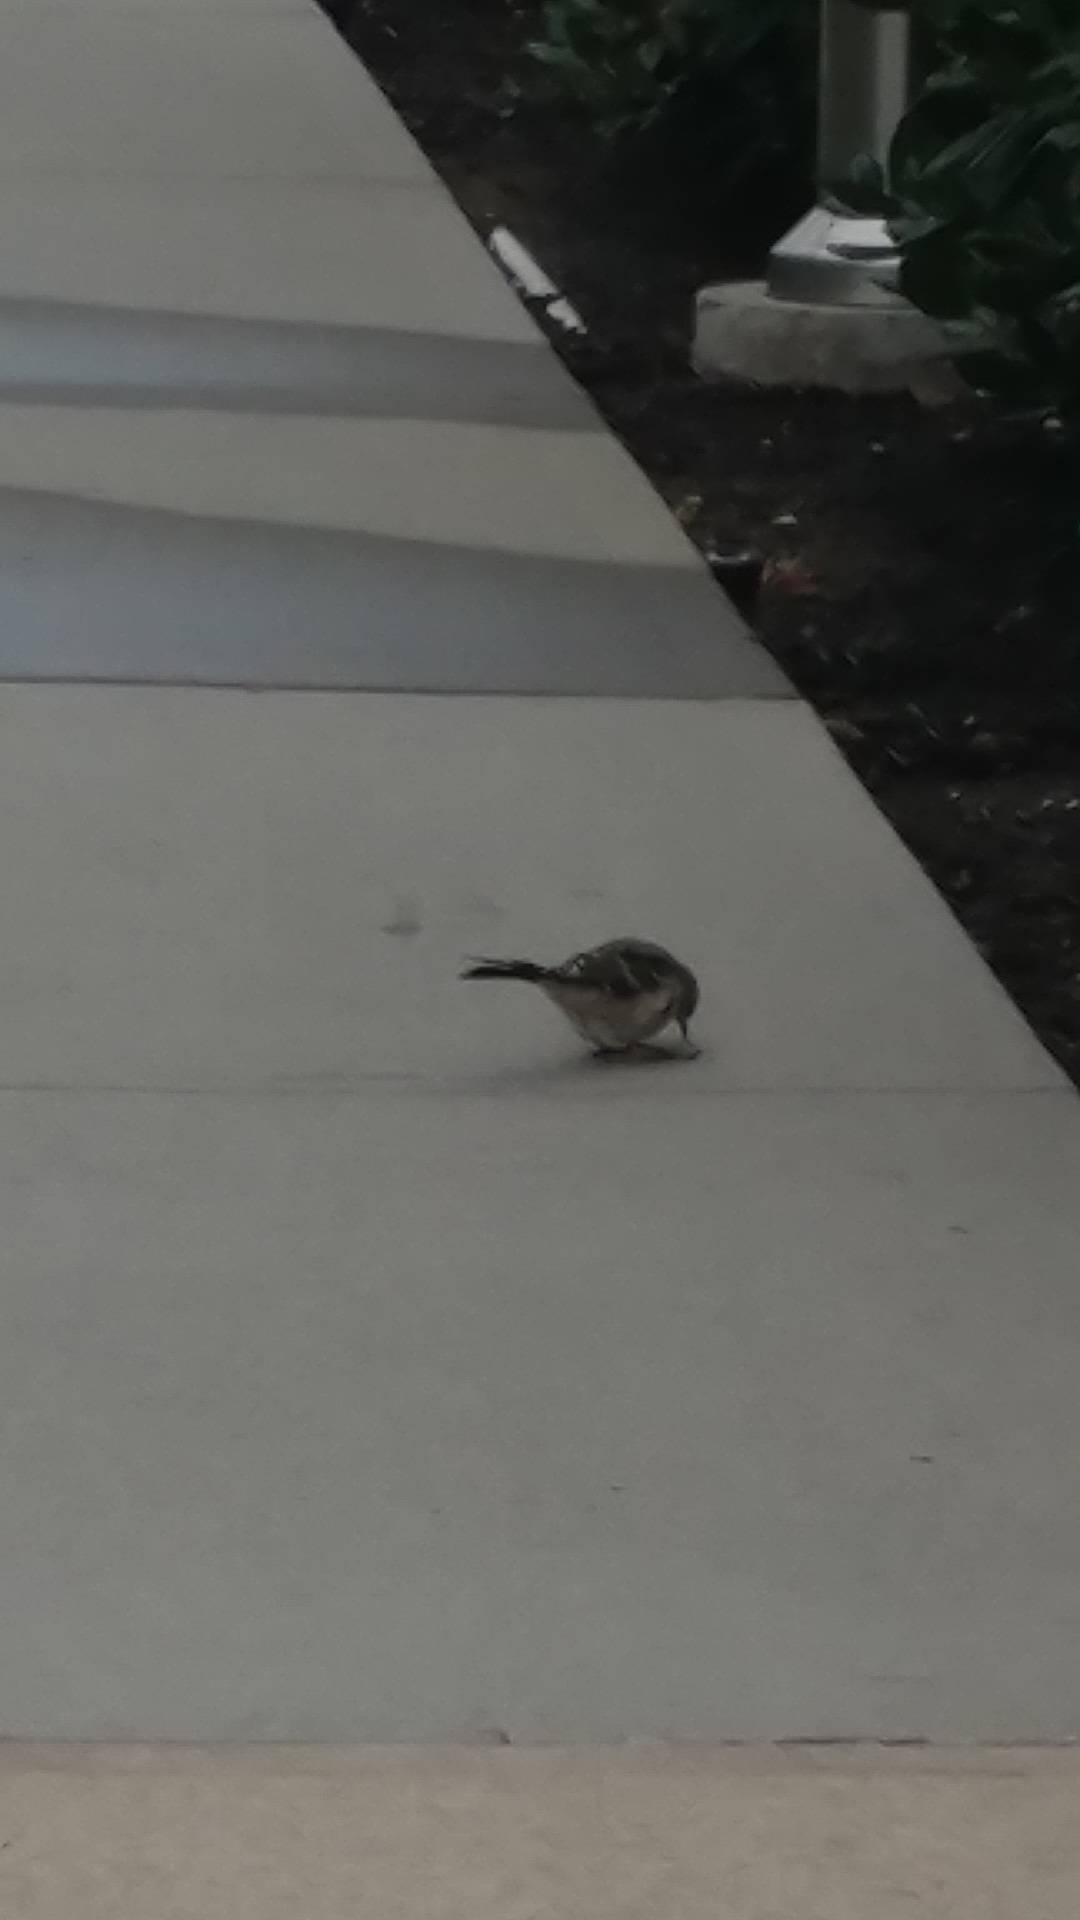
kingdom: Animalia
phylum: Chordata
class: Aves
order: Passeriformes
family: Mimidae
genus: Mimus
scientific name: Mimus polyglottos
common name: Northern mockingbird
